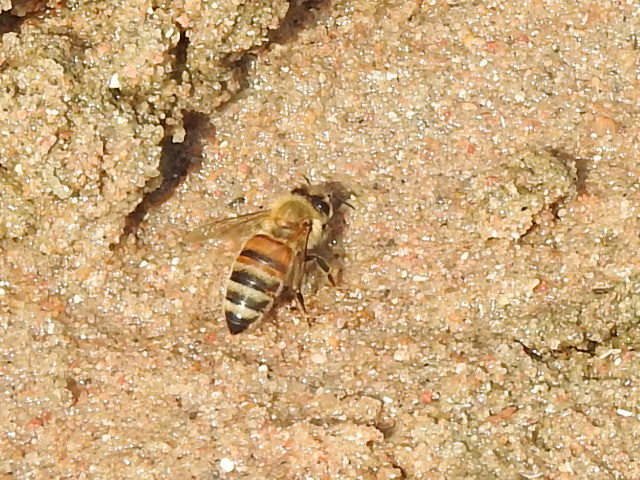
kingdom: Animalia
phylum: Arthropoda
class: Insecta
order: Hymenoptera
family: Apidae
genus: Apis
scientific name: Apis mellifera
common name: Honey bee
